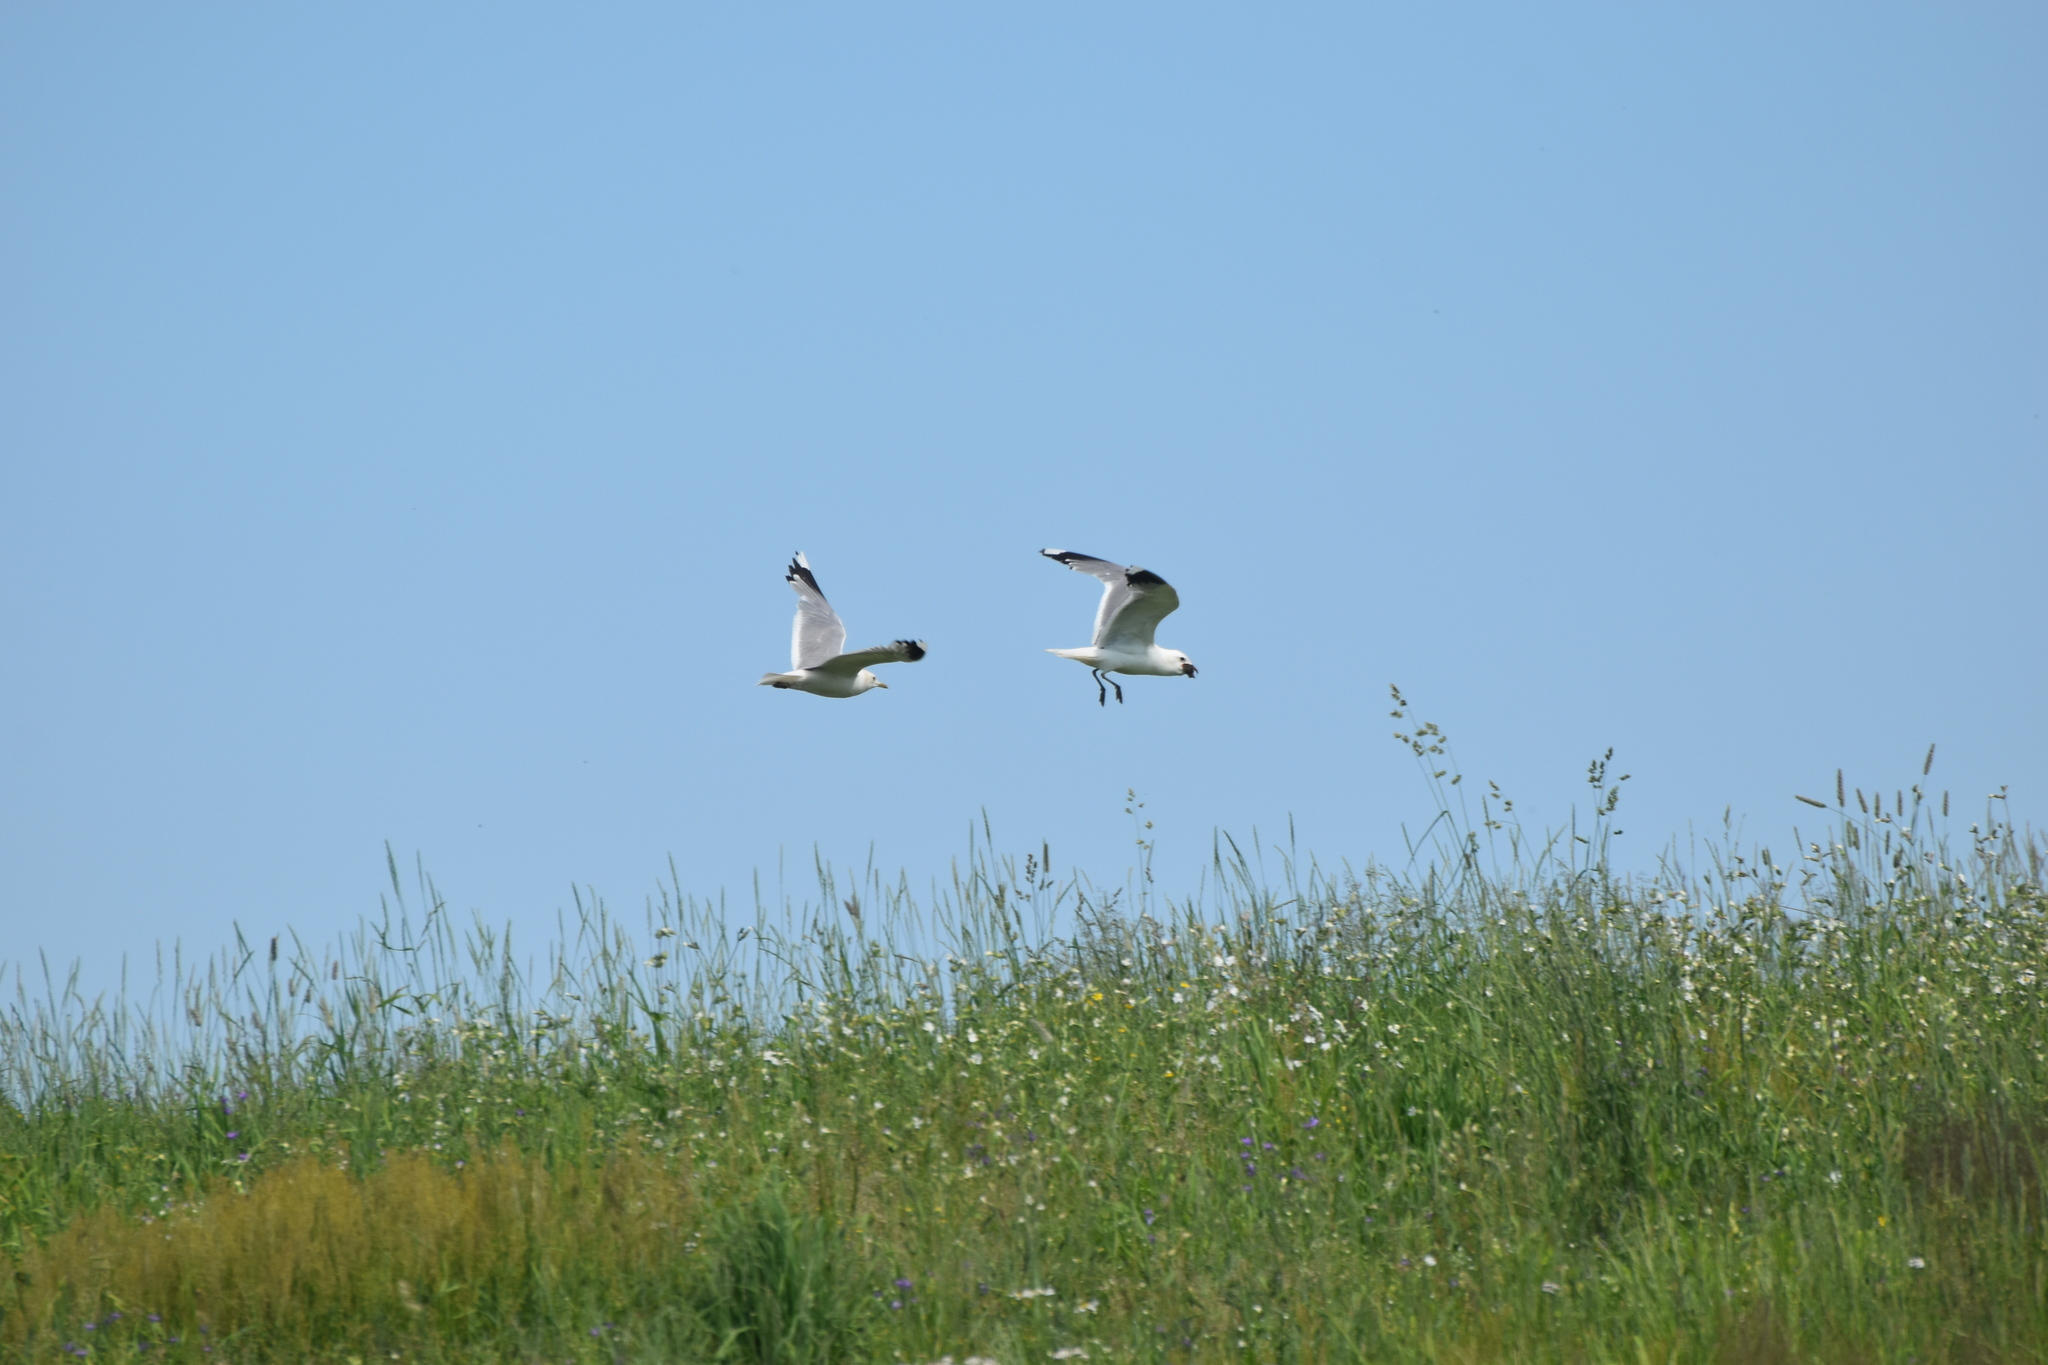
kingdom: Animalia
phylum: Chordata
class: Aves
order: Charadriiformes
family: Laridae
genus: Larus
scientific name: Larus canus
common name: Mew gull
